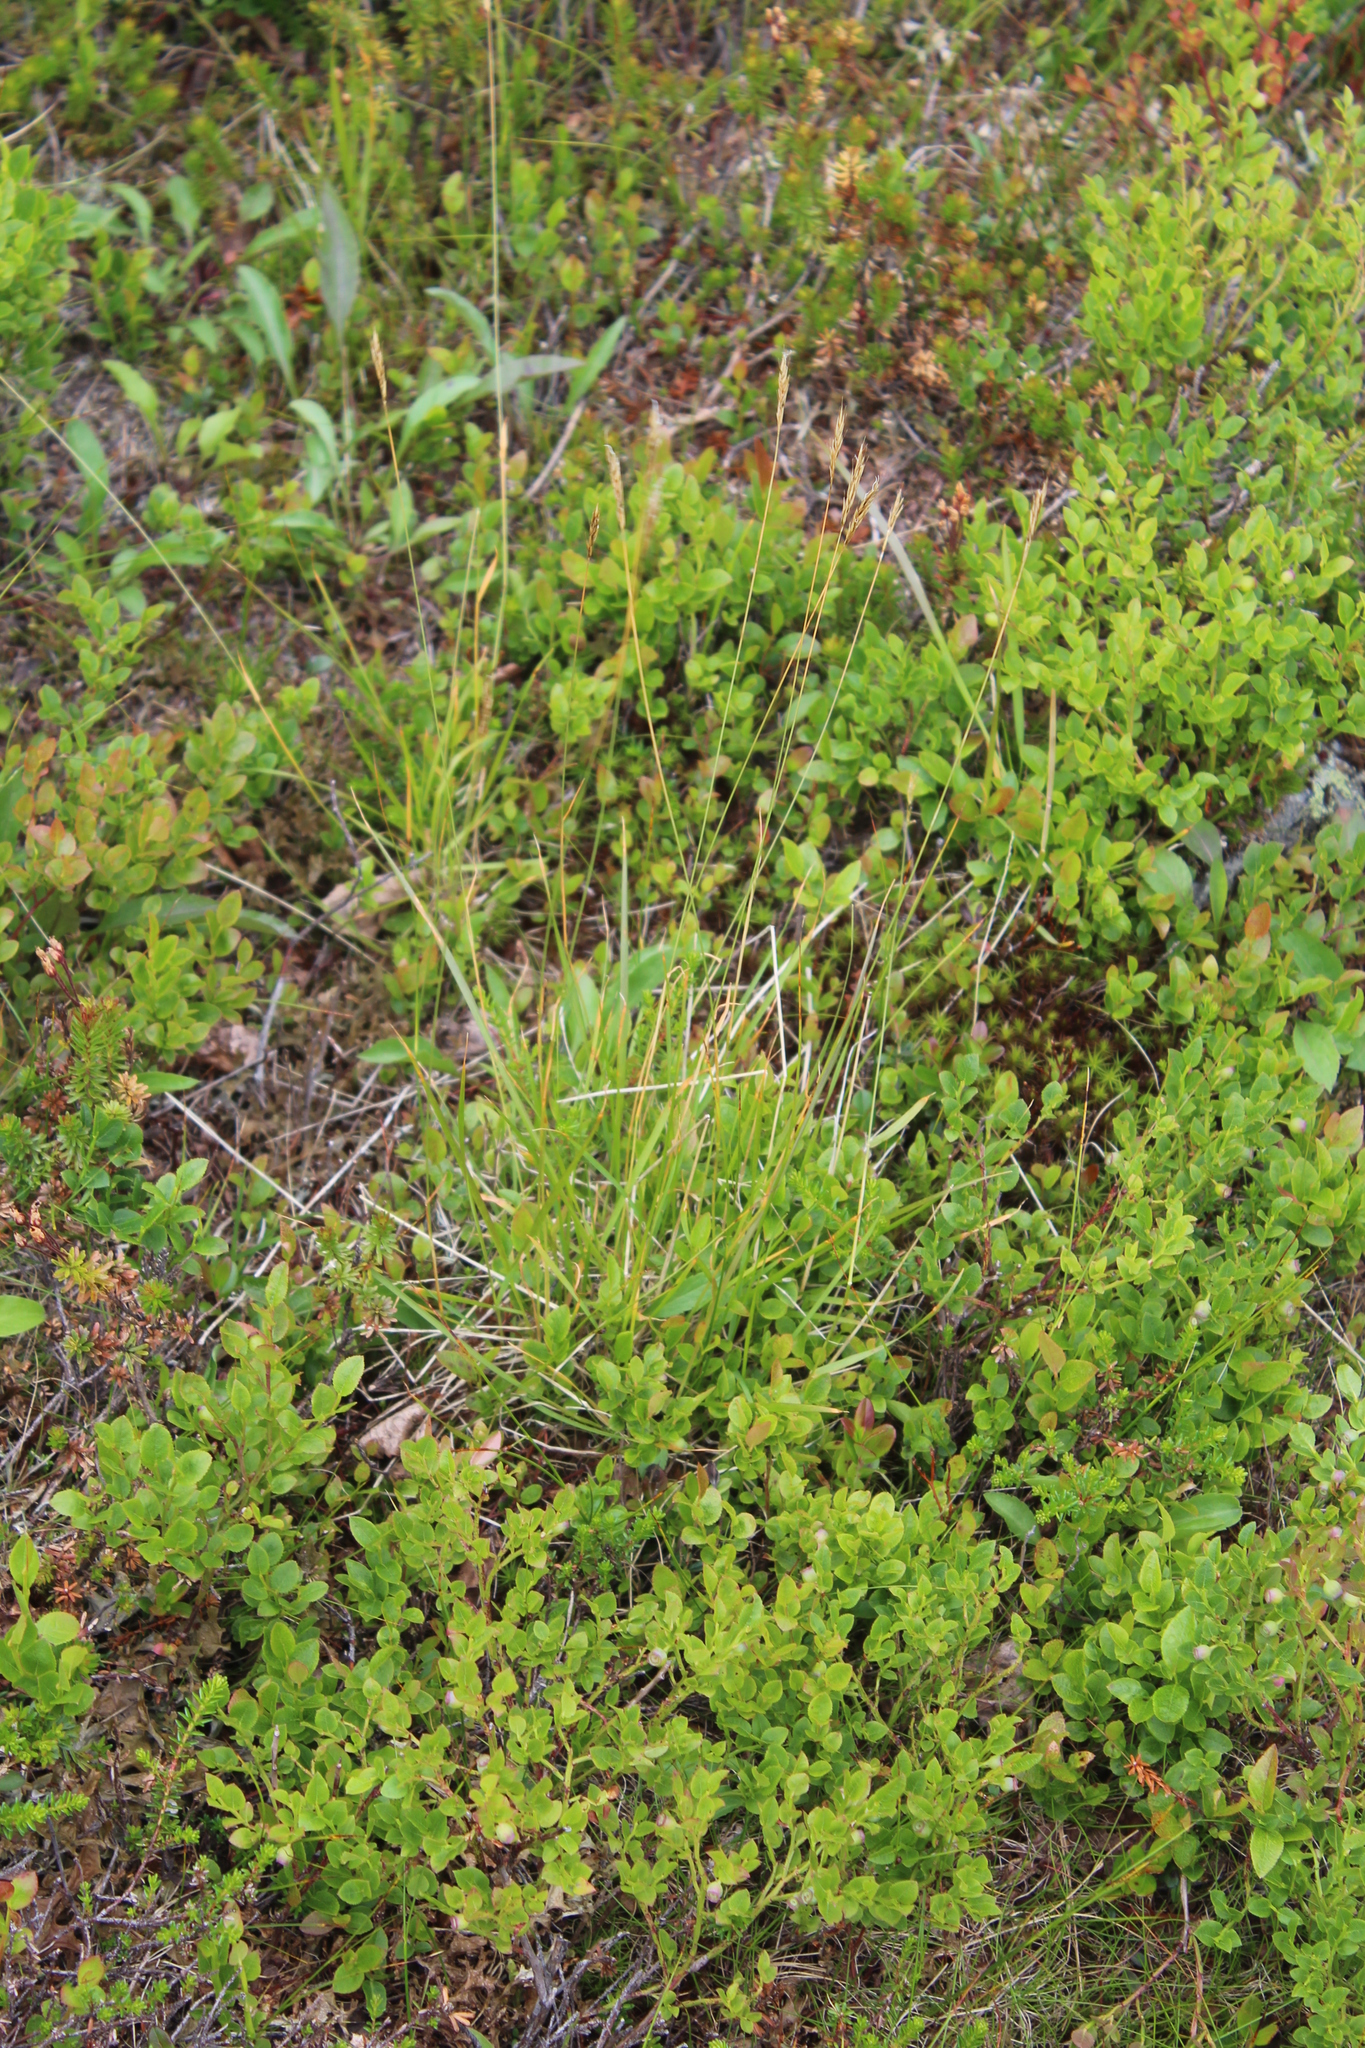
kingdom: Plantae
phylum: Tracheophyta
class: Liliopsida
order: Poales
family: Poaceae
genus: Anthoxanthum
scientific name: Anthoxanthum odoratum
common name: Sweet vernalgrass
